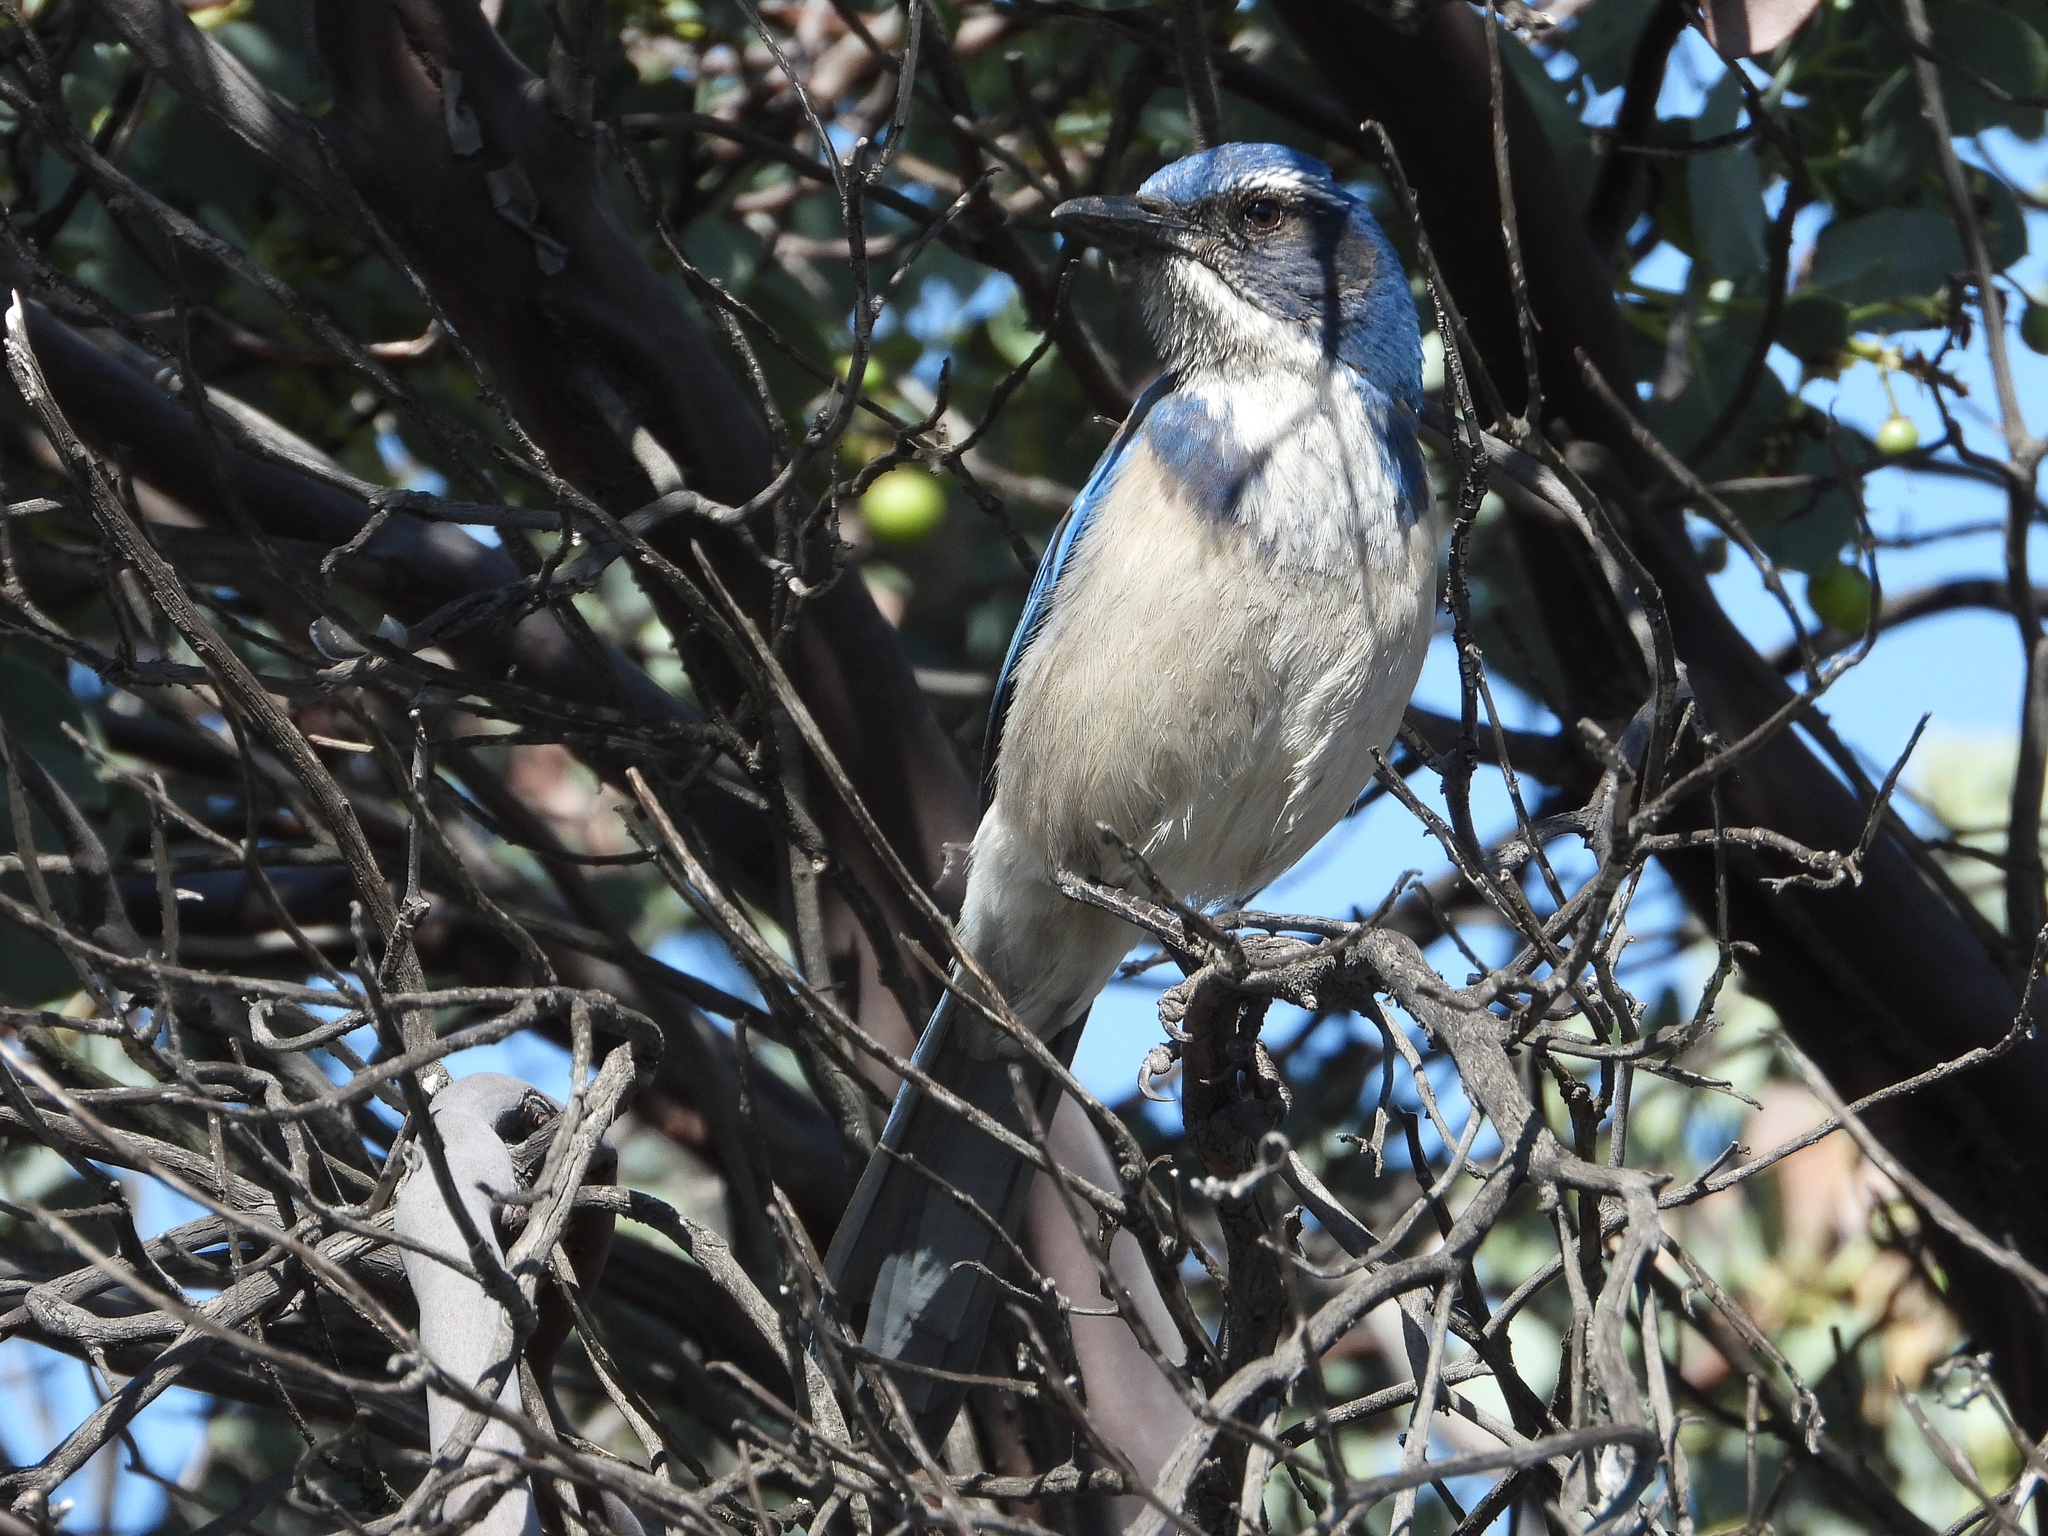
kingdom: Animalia
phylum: Chordata
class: Aves
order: Passeriformes
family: Corvidae
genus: Aphelocoma
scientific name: Aphelocoma californica
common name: California scrub-jay
